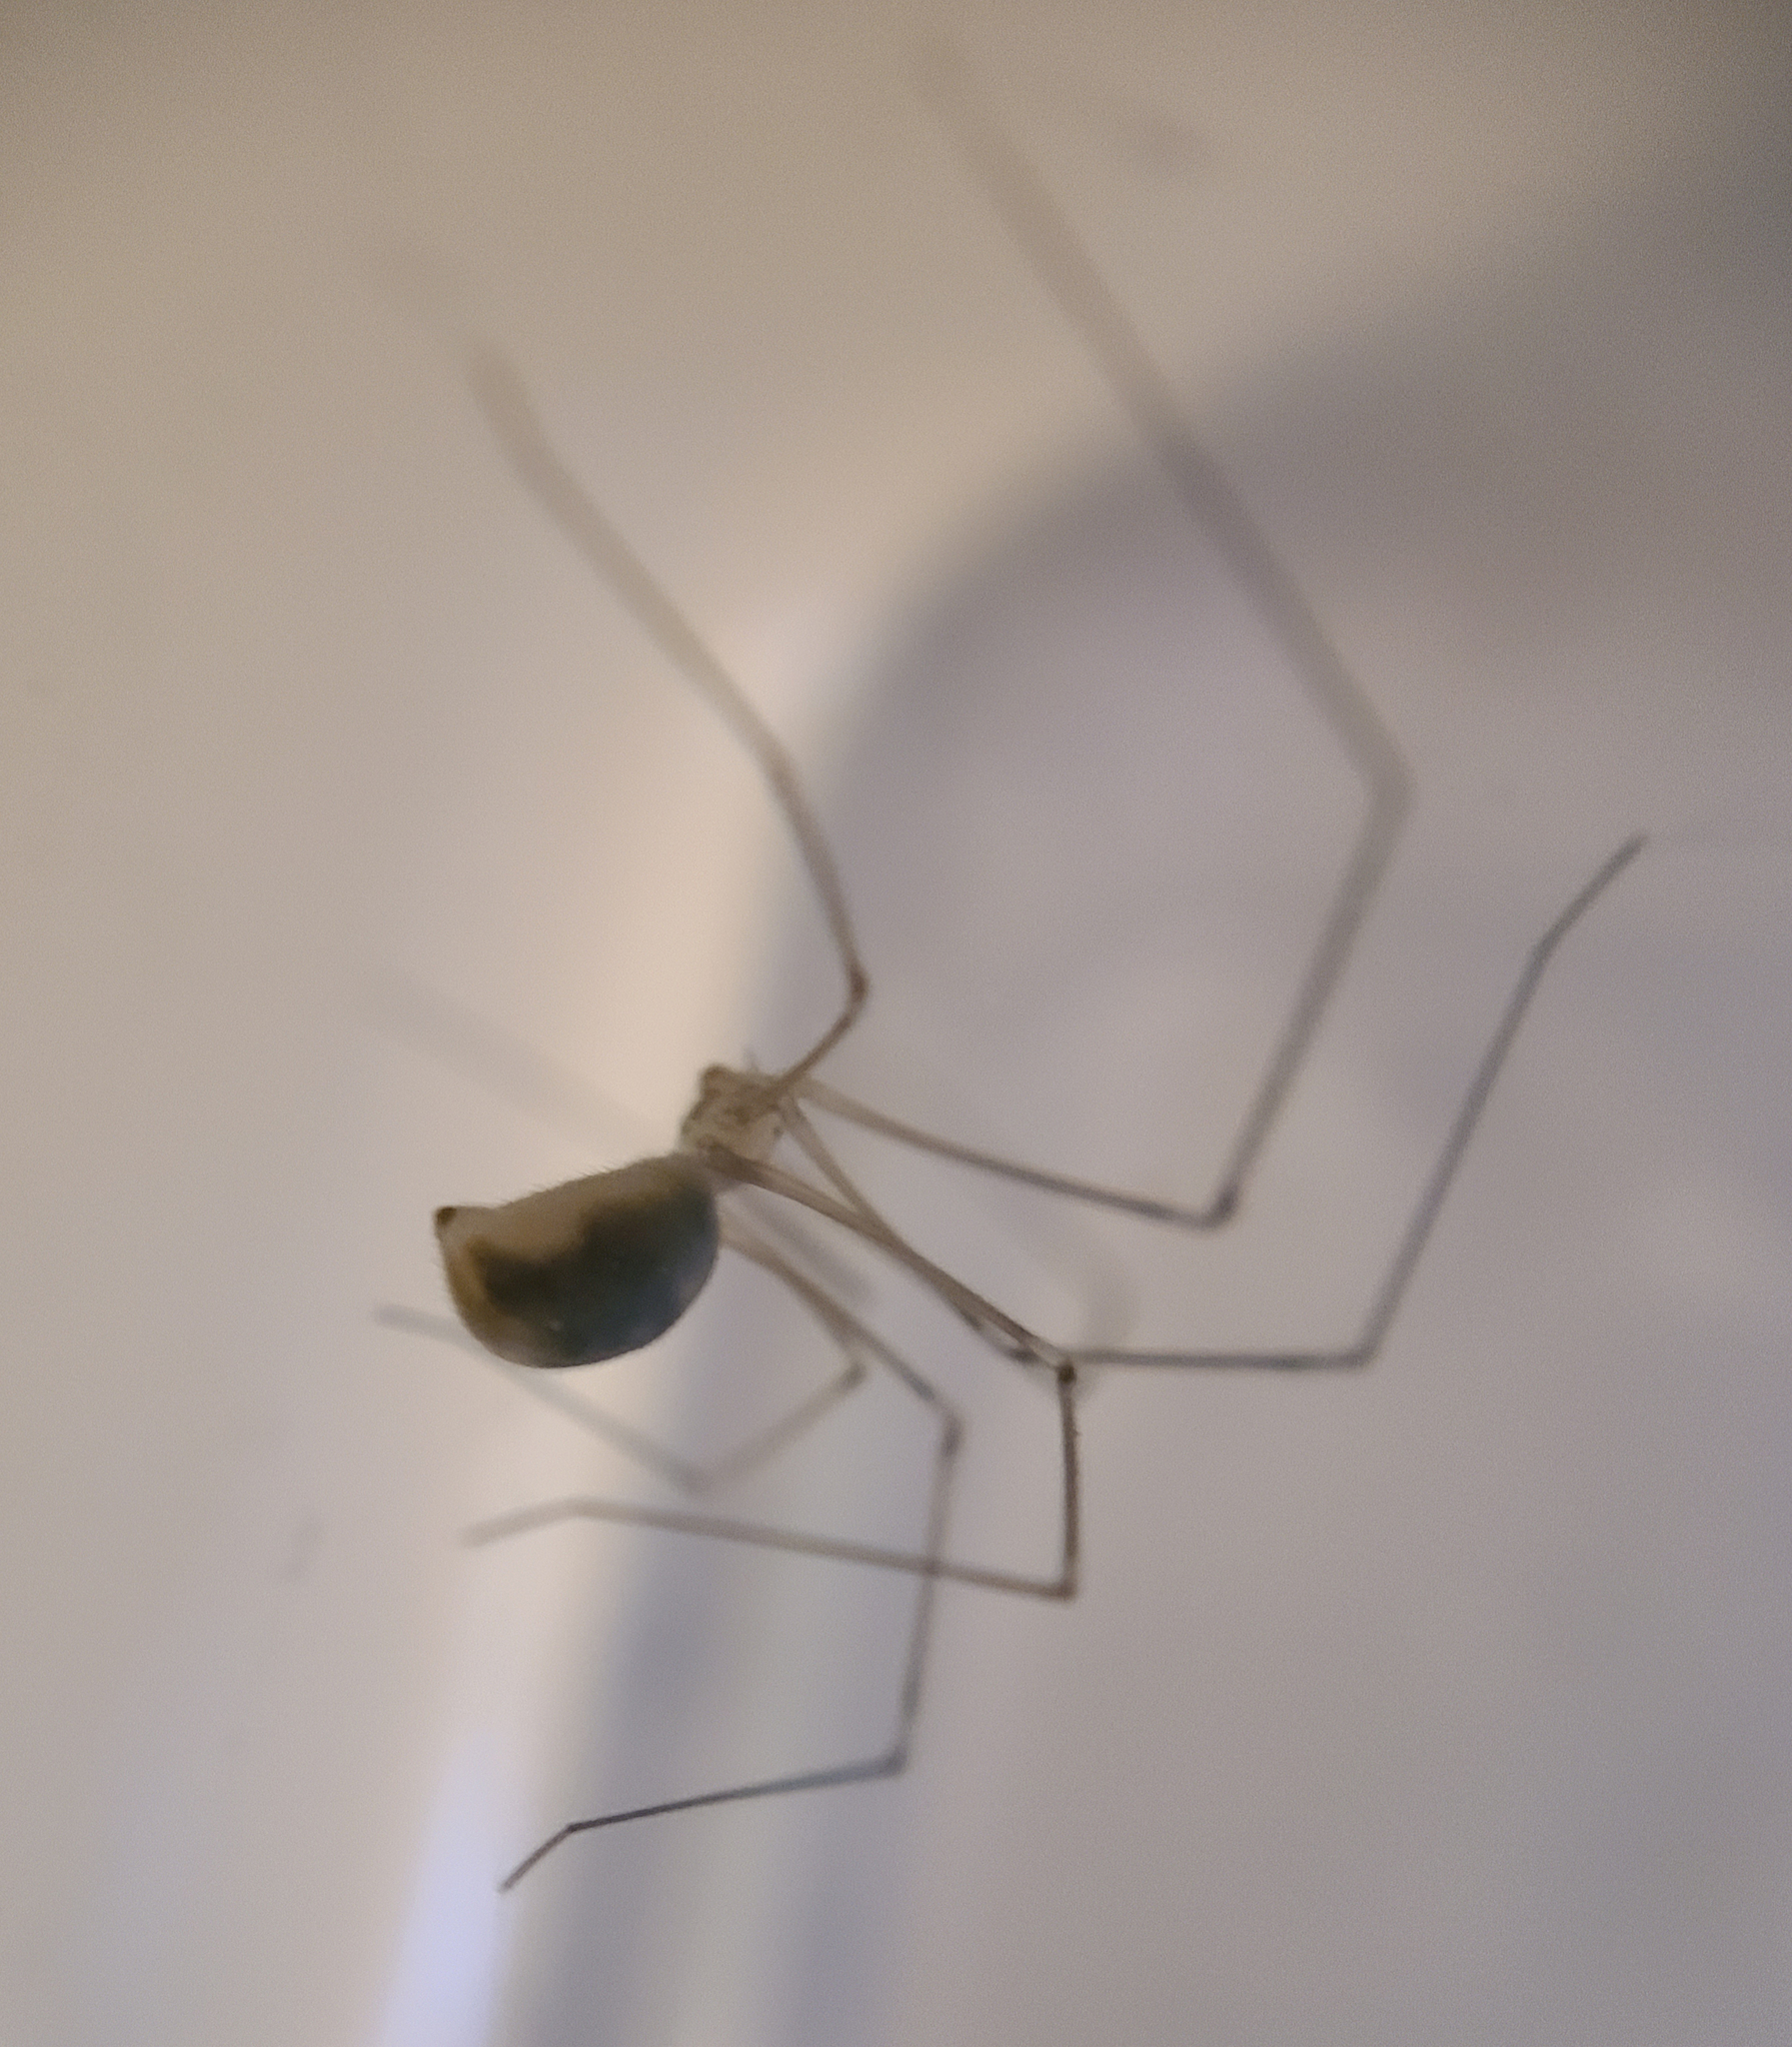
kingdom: Animalia
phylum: Arthropoda
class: Arachnida
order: Araneae
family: Pholcidae
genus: Pholcus
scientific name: Pholcus phalangioides
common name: Longbodied cellar spider
